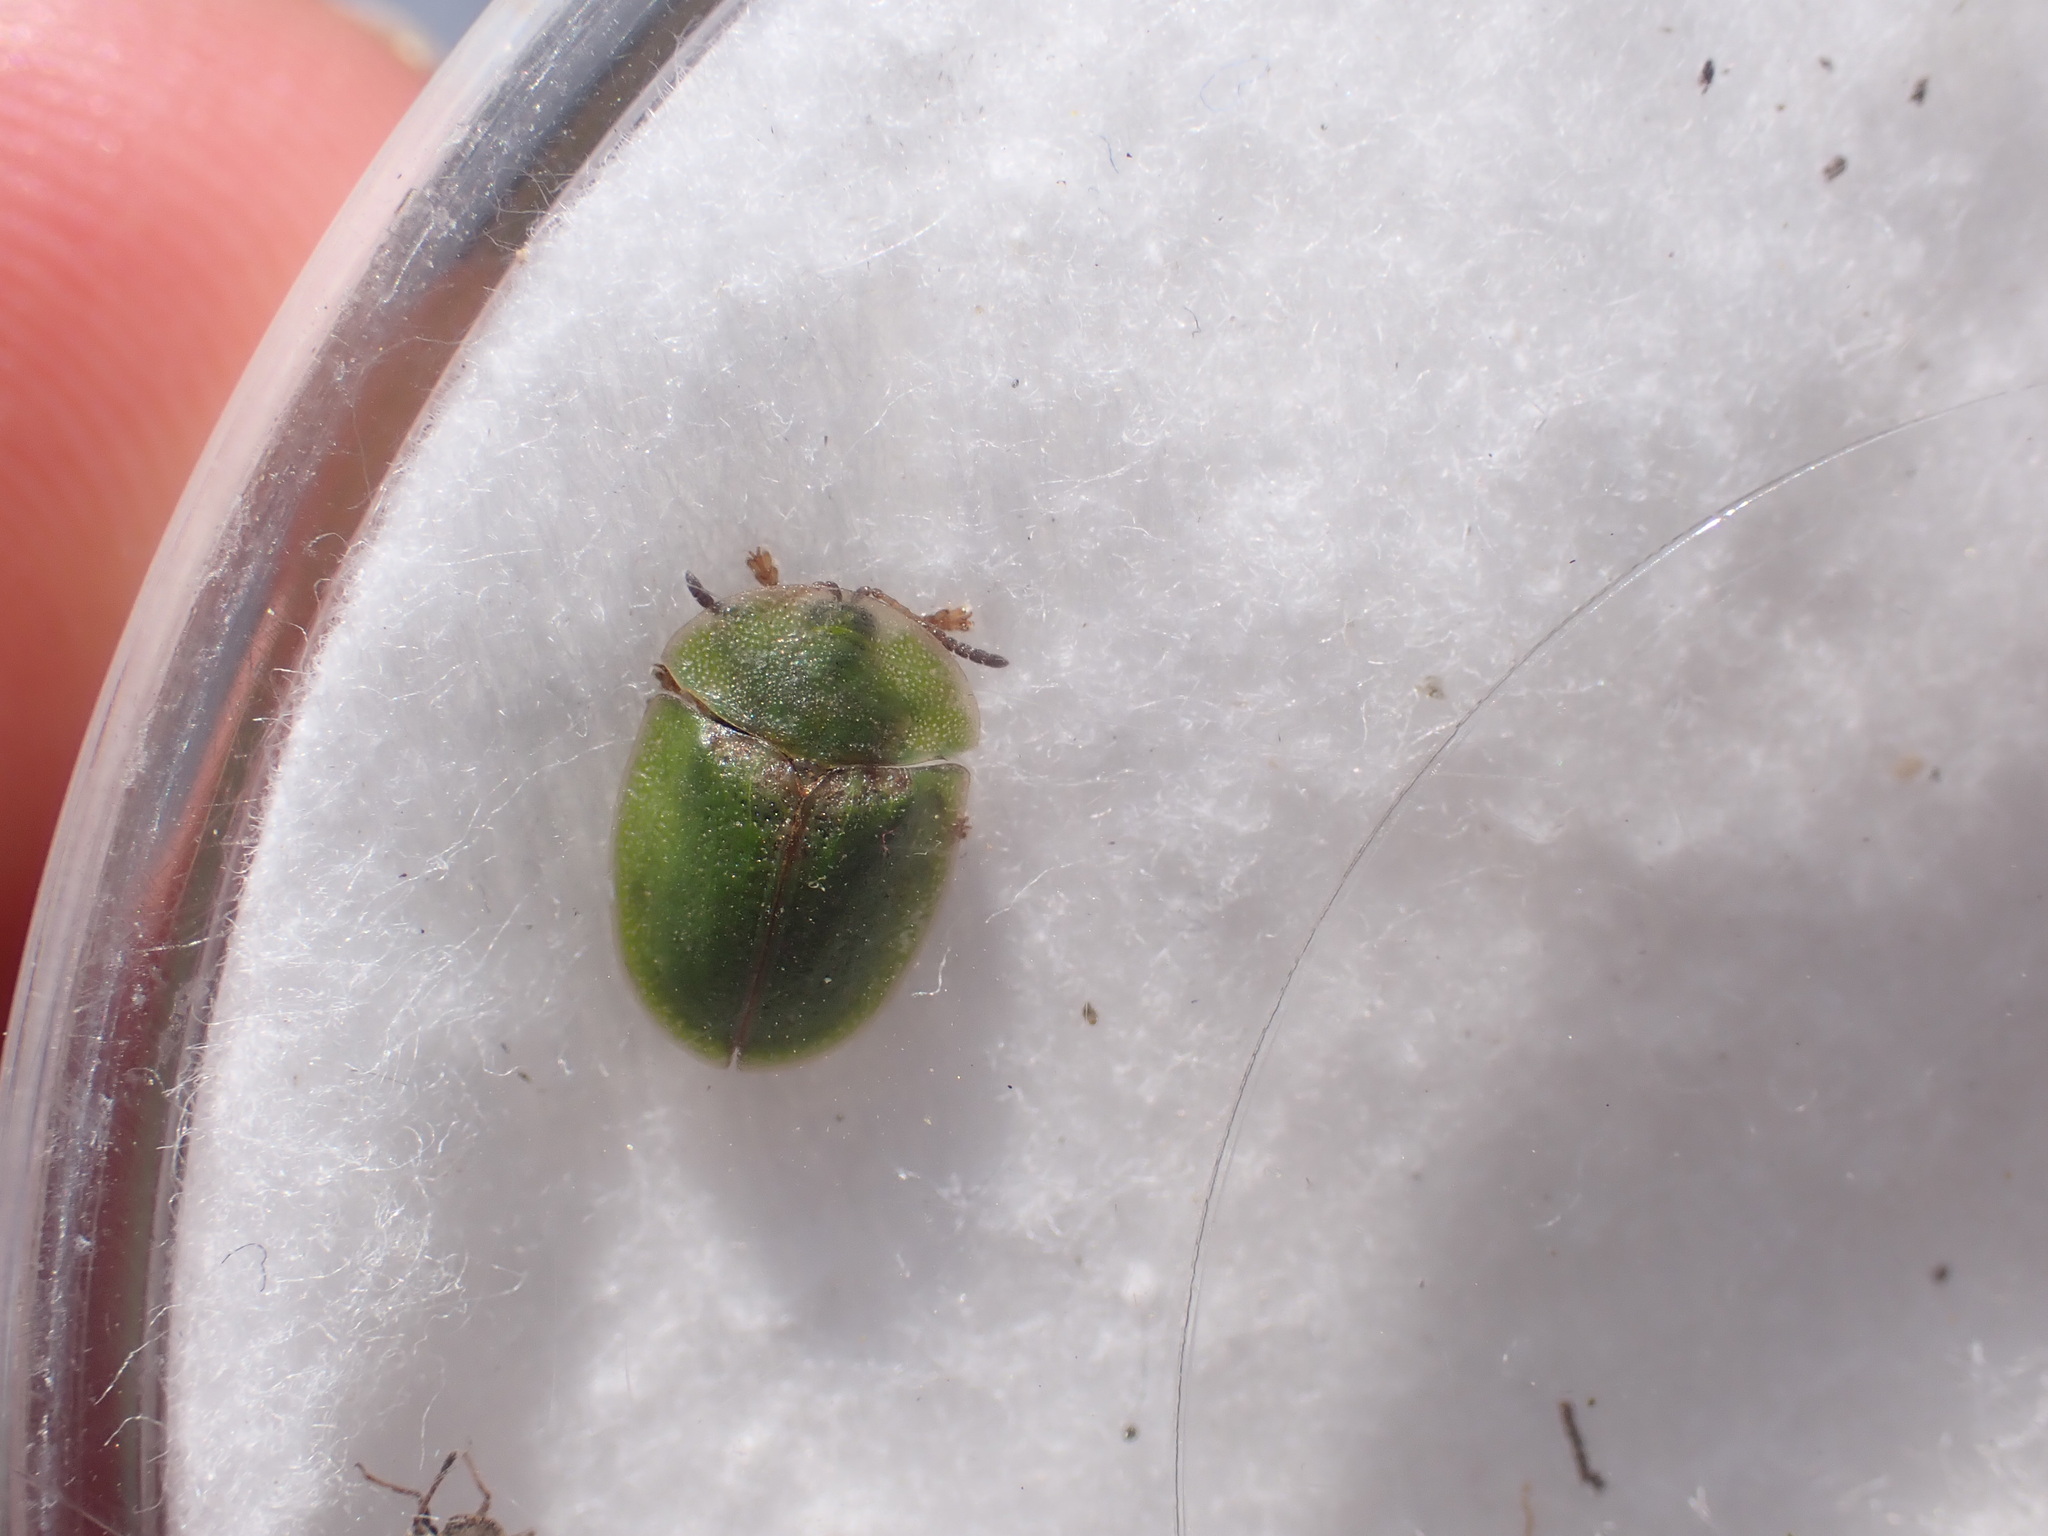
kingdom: Animalia
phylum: Arthropoda
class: Insecta
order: Coleoptera
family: Chrysomelidae
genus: Cassida
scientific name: Cassida rubiginosa
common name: Thistle tortoise beetle
